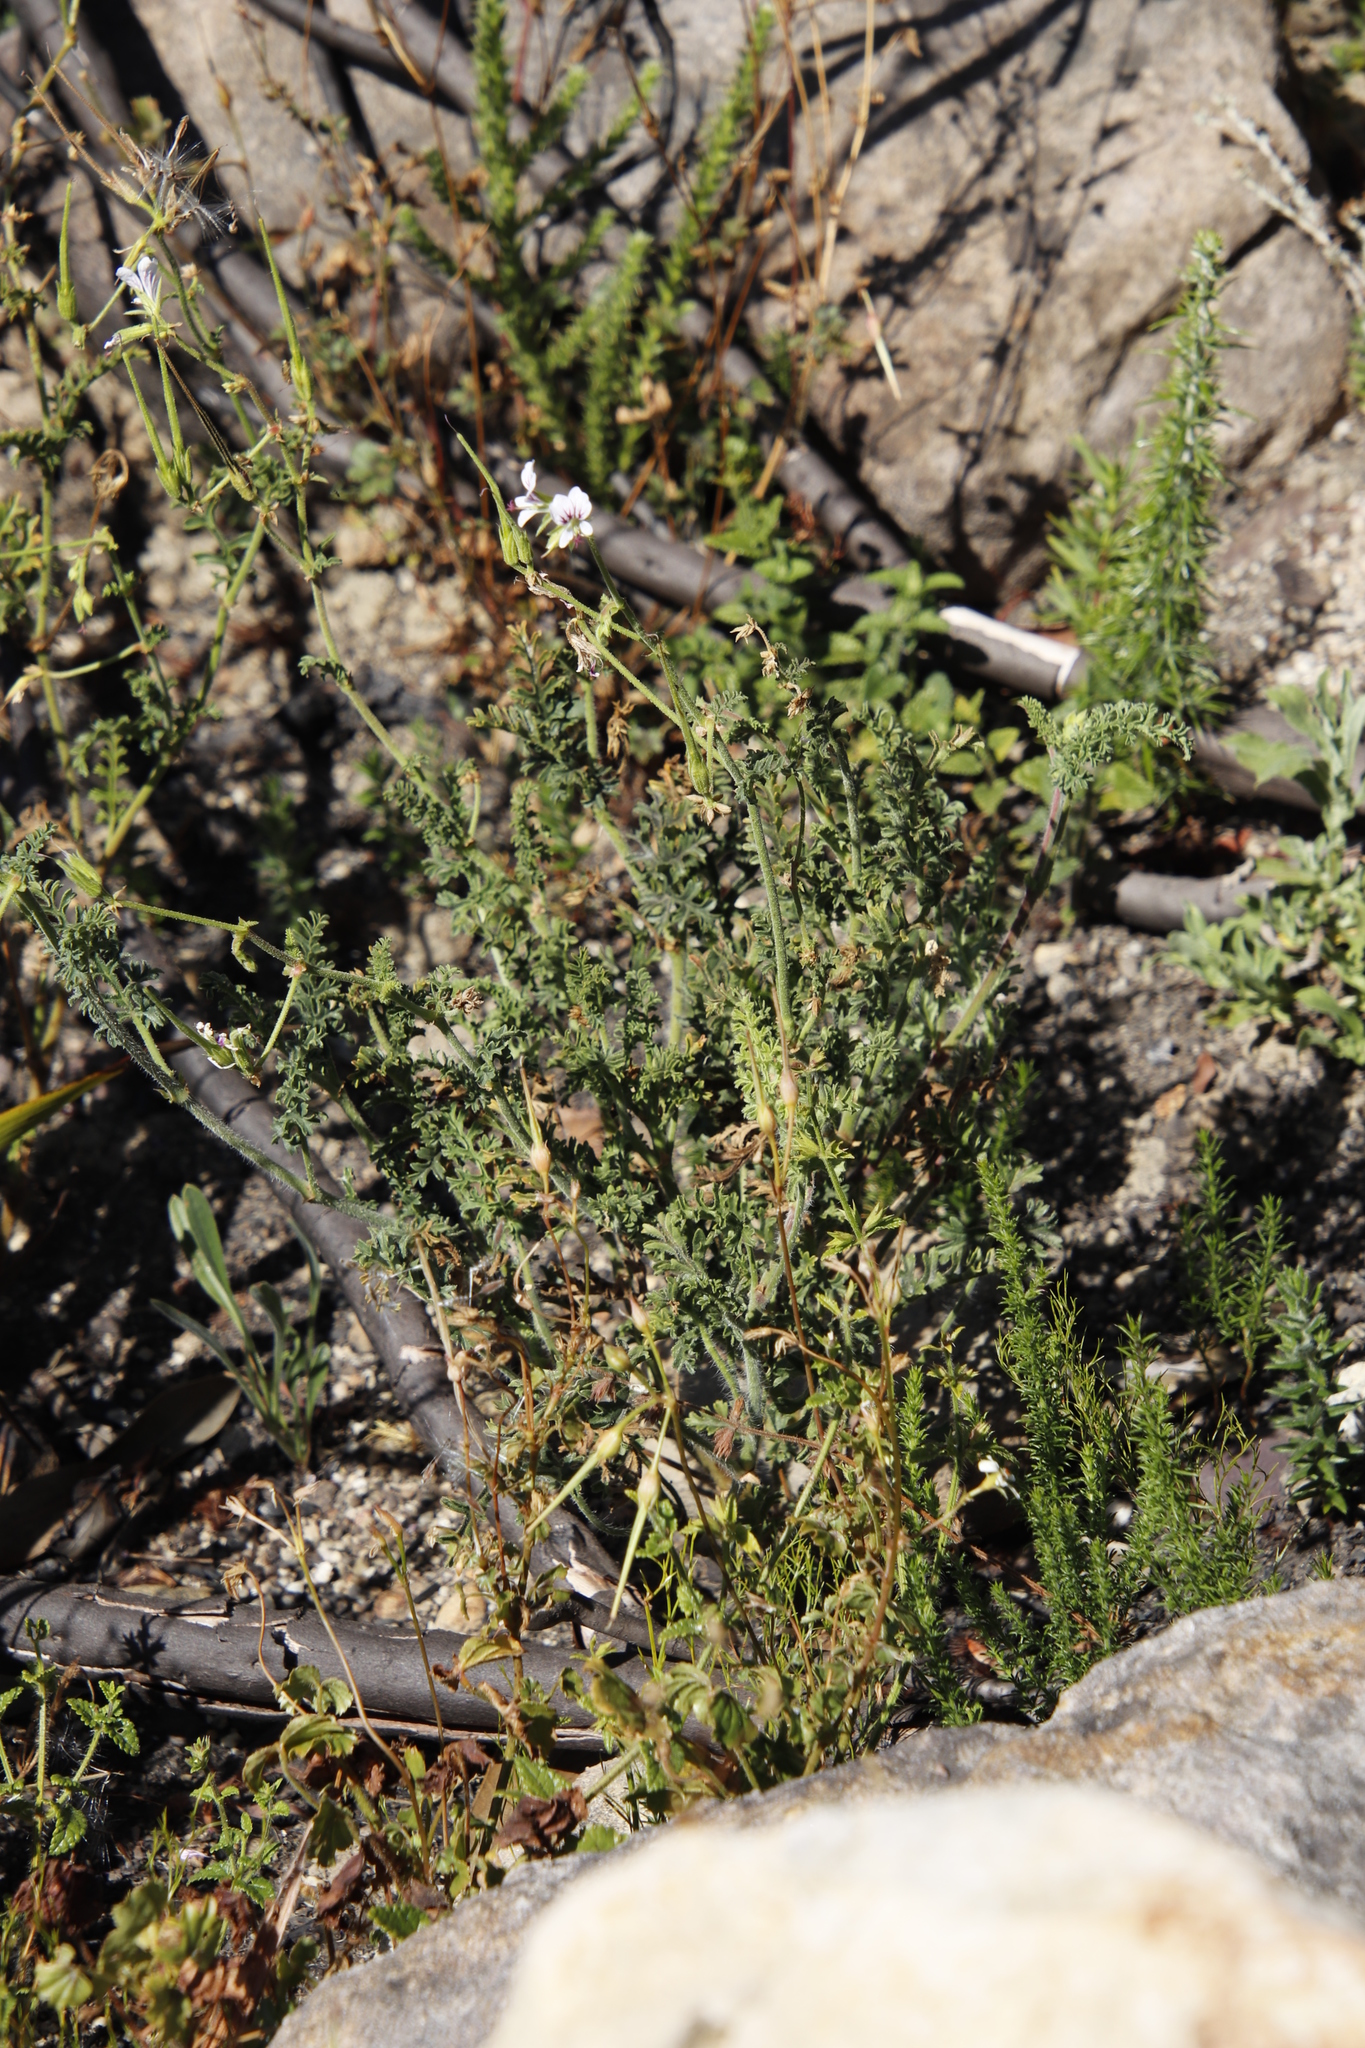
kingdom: Plantae
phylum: Tracheophyta
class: Magnoliopsida
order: Geraniales
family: Geraniaceae
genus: Pelargonium
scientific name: Pelargonium myrrhifolium
